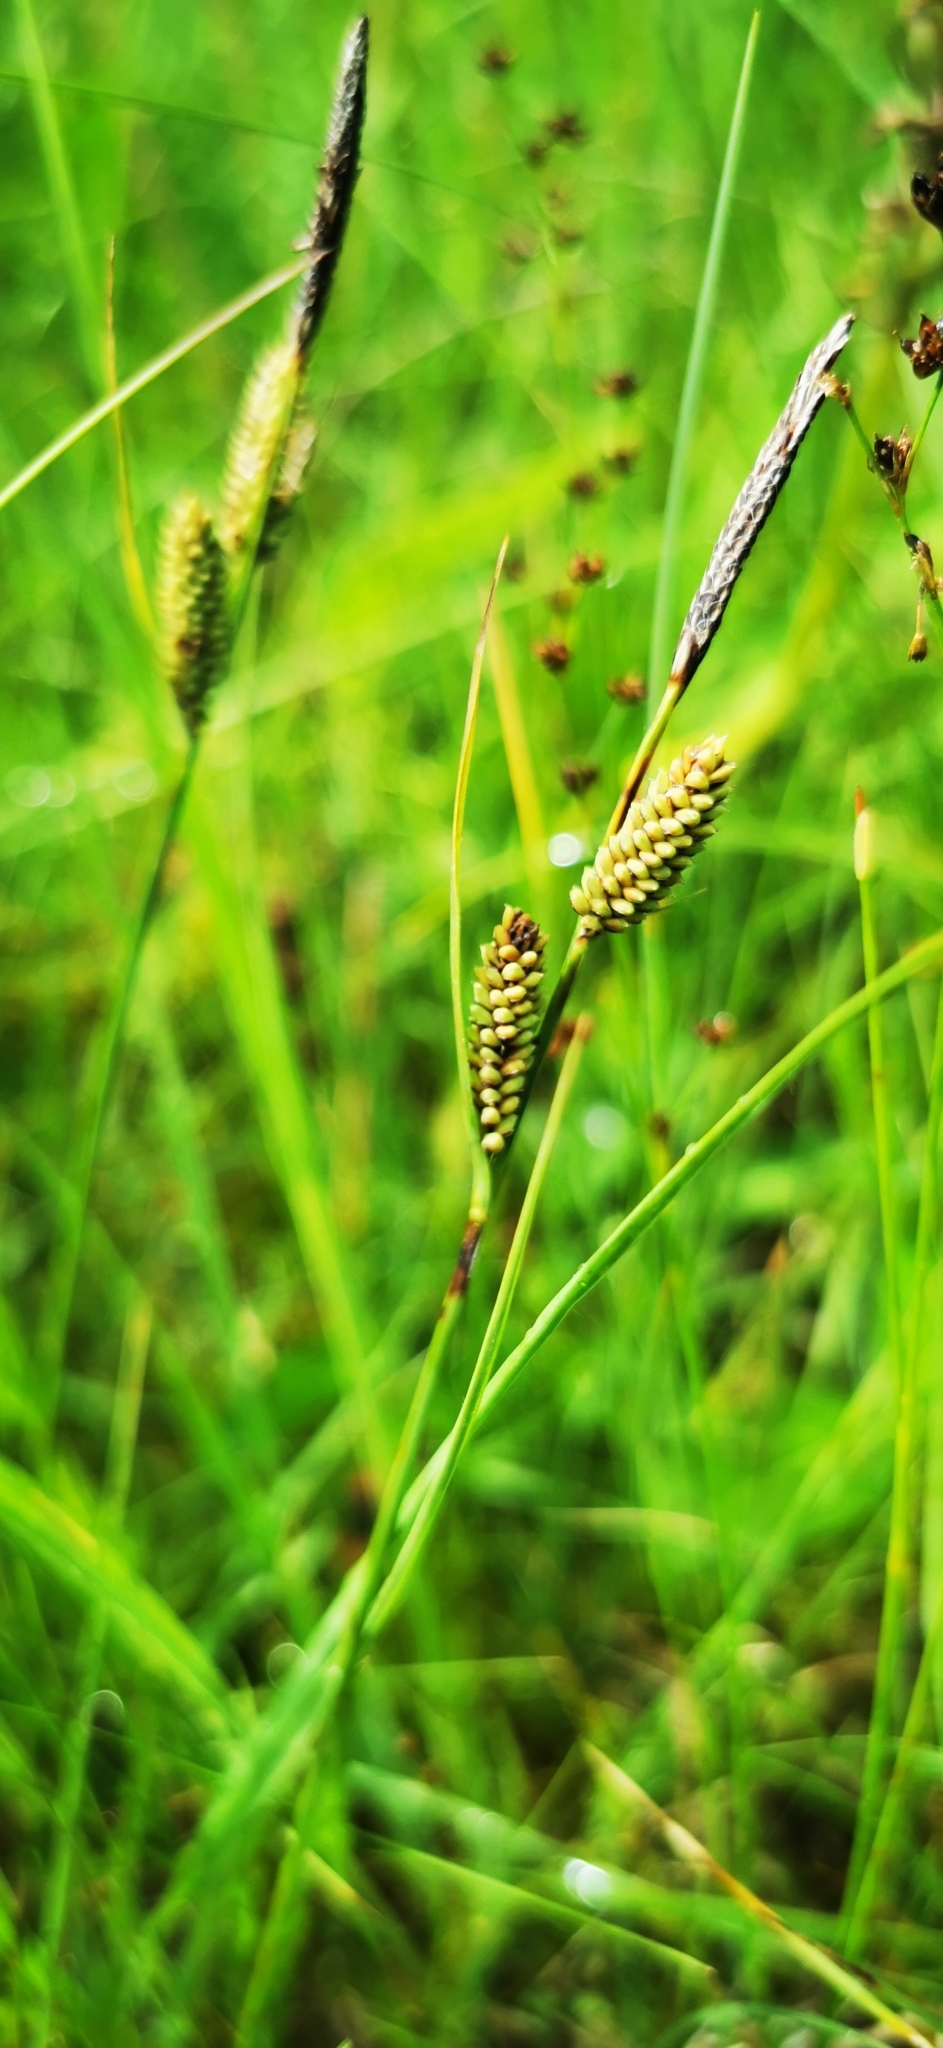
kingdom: Plantae
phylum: Tracheophyta
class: Liliopsida
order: Poales
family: Cyperaceae
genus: Carex
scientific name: Carex nigra
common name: Common sedge
